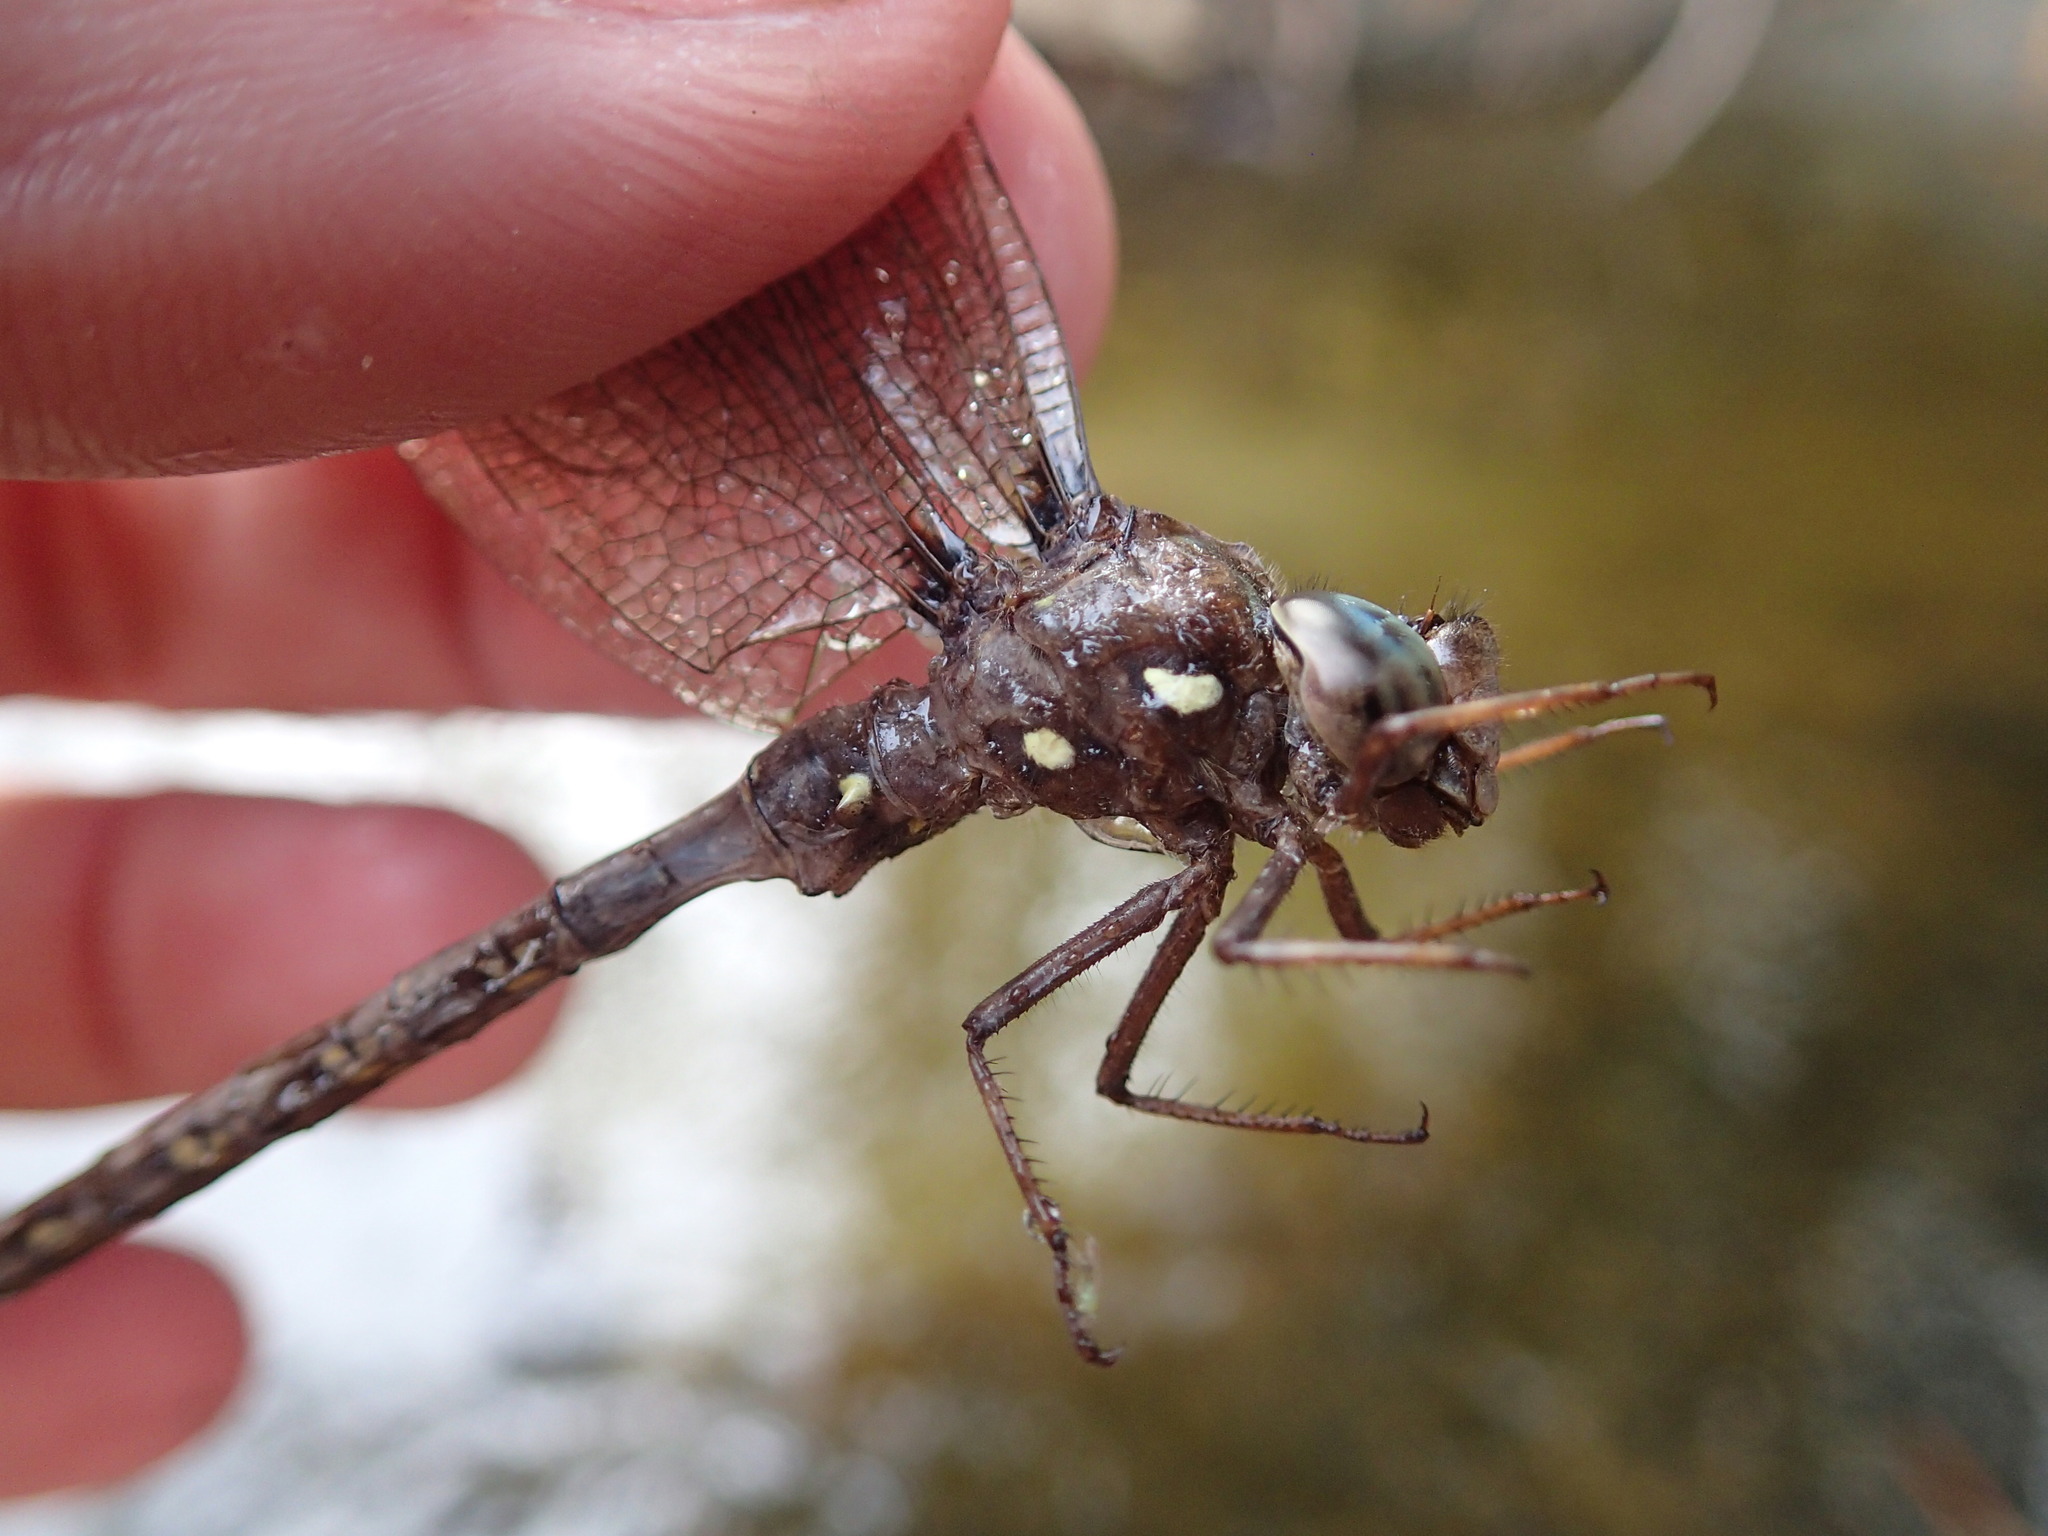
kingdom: Animalia
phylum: Arthropoda
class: Insecta
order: Odonata
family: Aeshnidae
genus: Boyeria
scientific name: Boyeria vinosa
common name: Fawn darner
